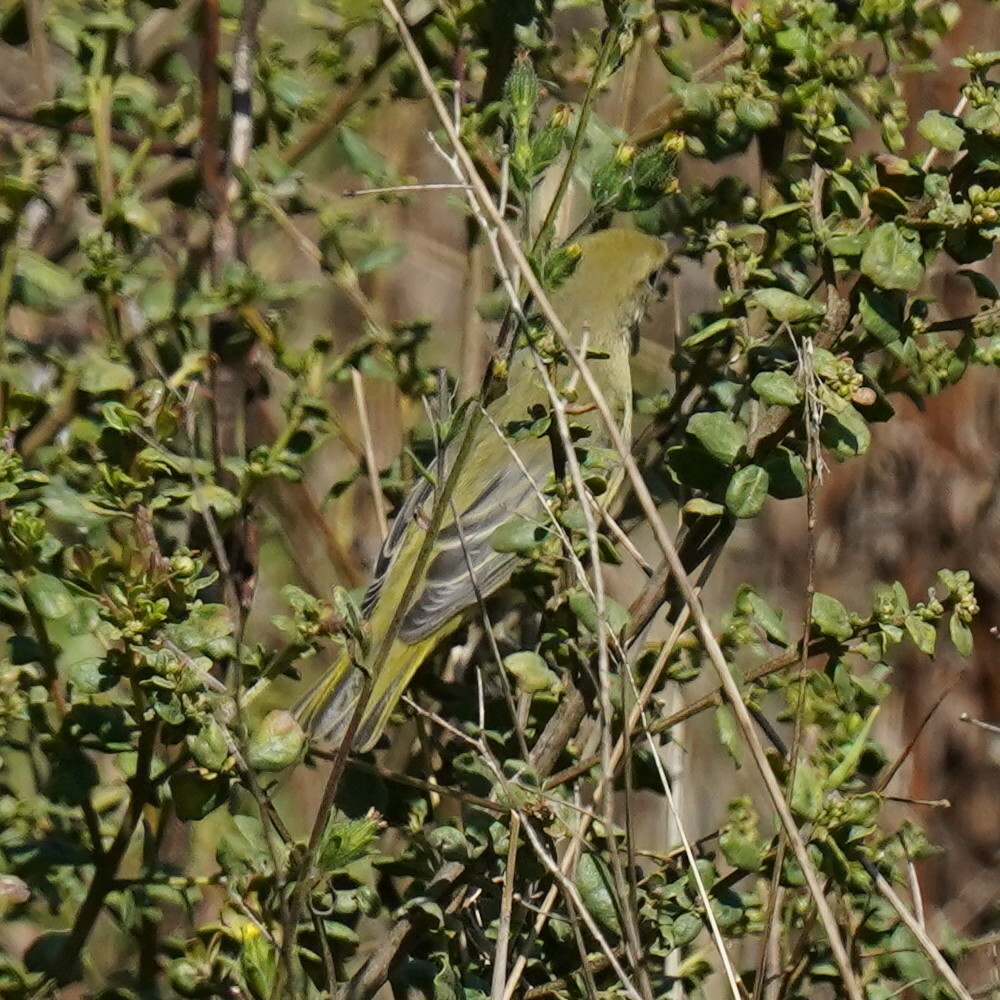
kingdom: Animalia
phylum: Chordata
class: Aves
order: Passeriformes
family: Parulidae
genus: Setophaga
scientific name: Setophaga petechia
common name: Yellow warbler
